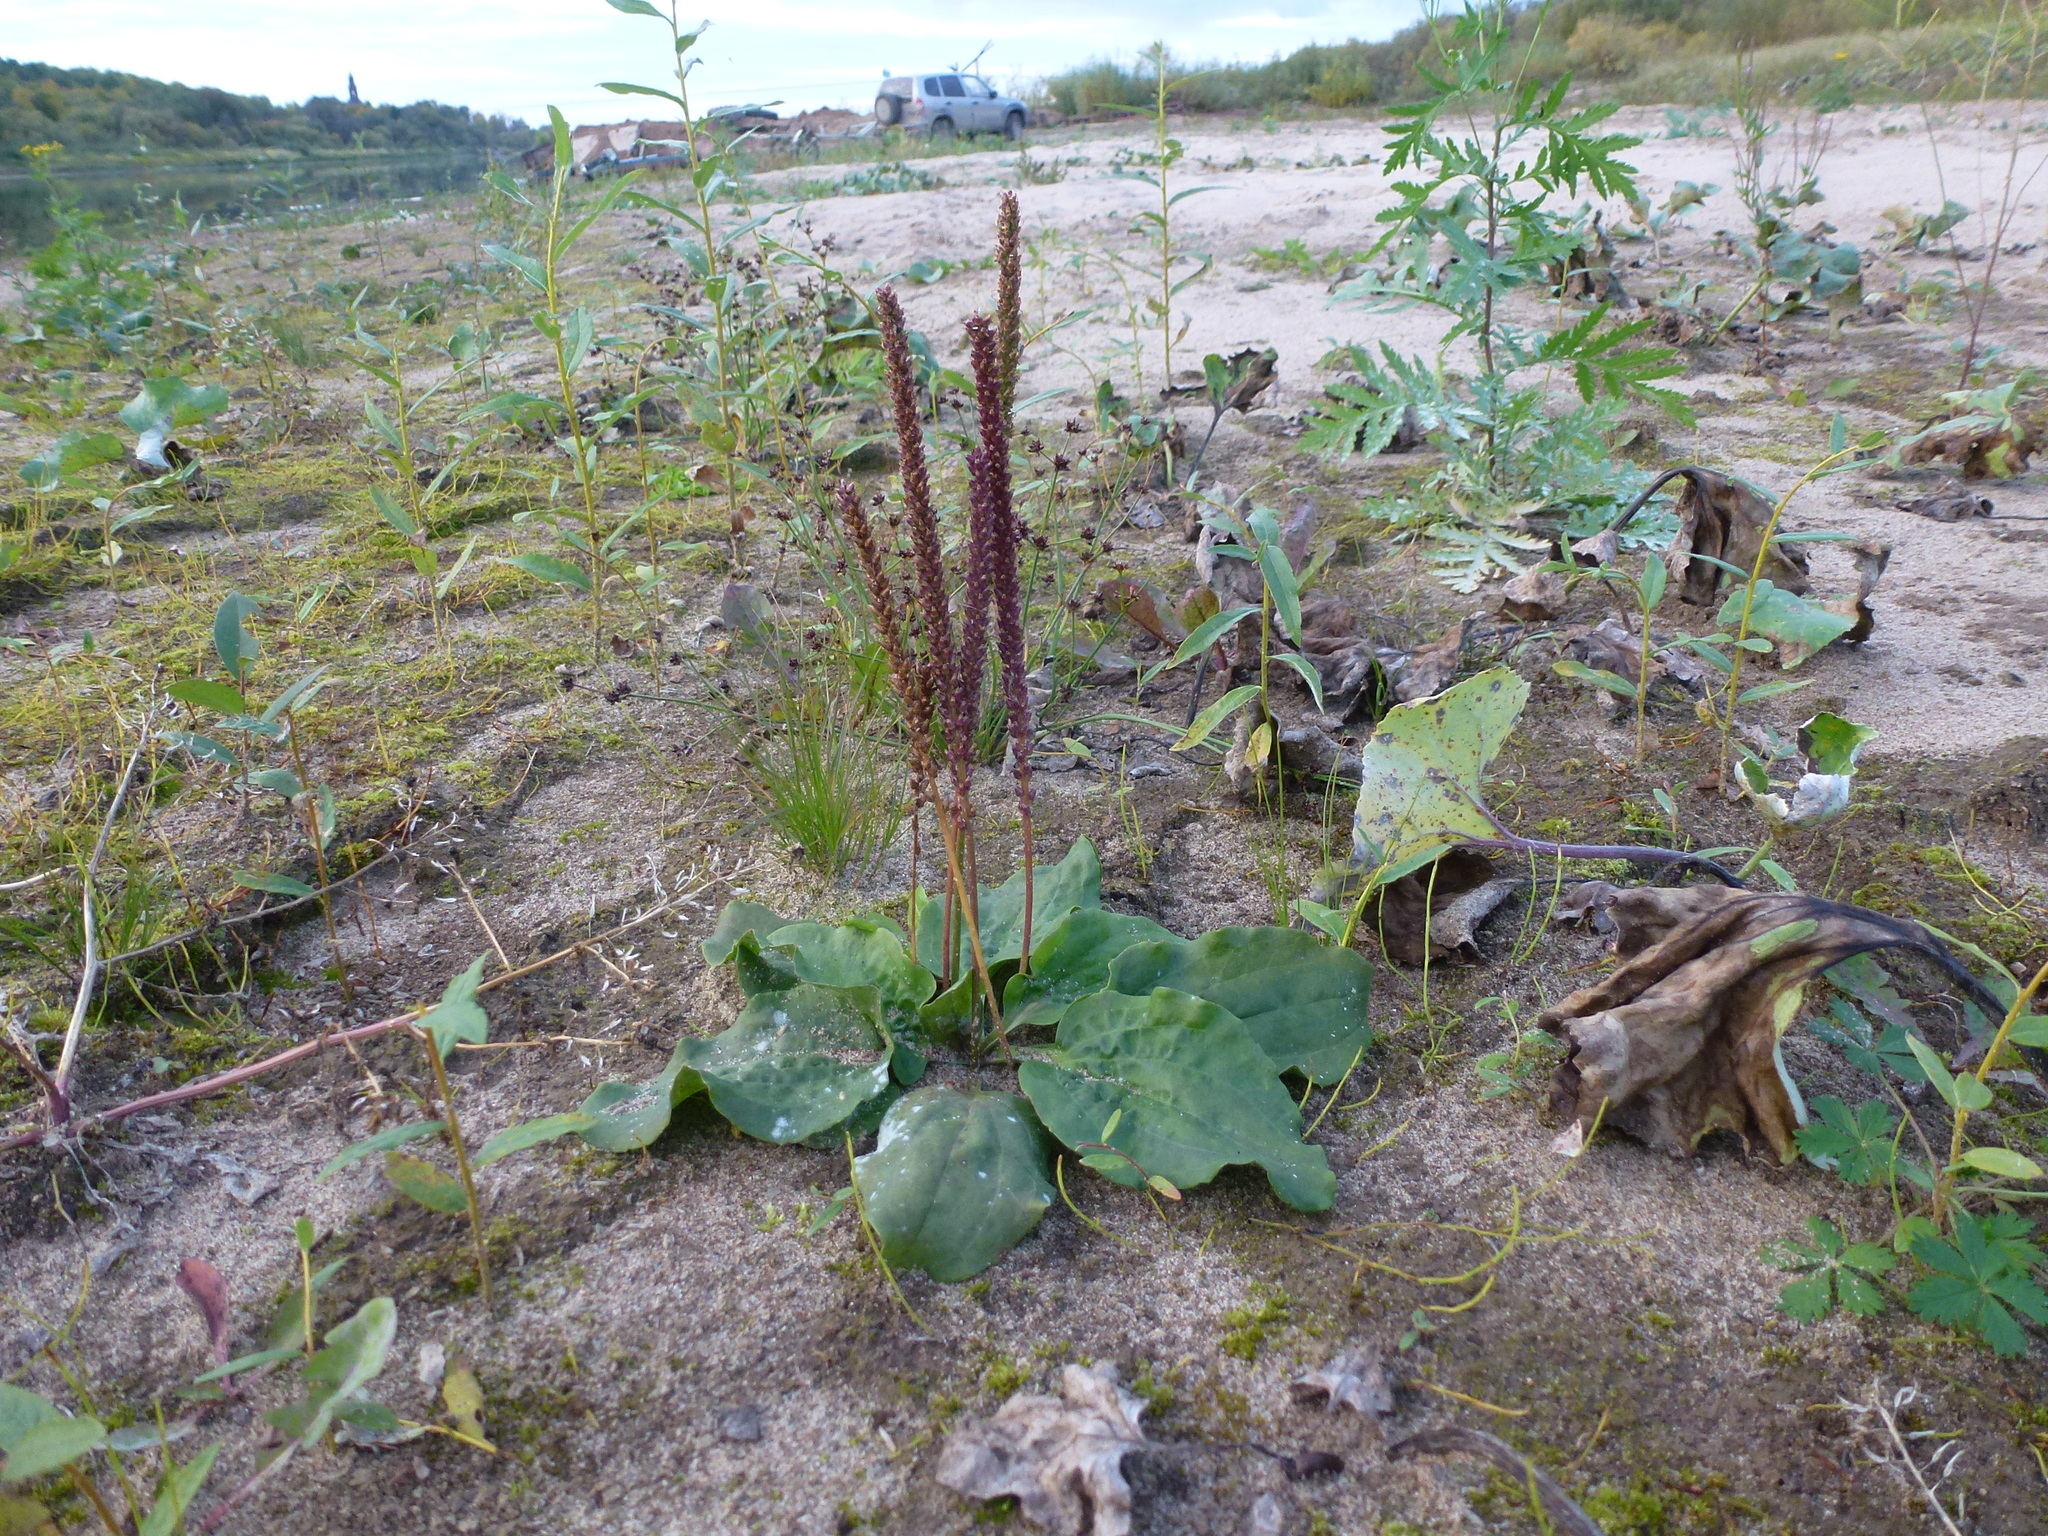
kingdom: Plantae
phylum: Tracheophyta
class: Magnoliopsida
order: Lamiales
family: Plantaginaceae
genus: Plantago
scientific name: Plantago major
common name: Common plantain
